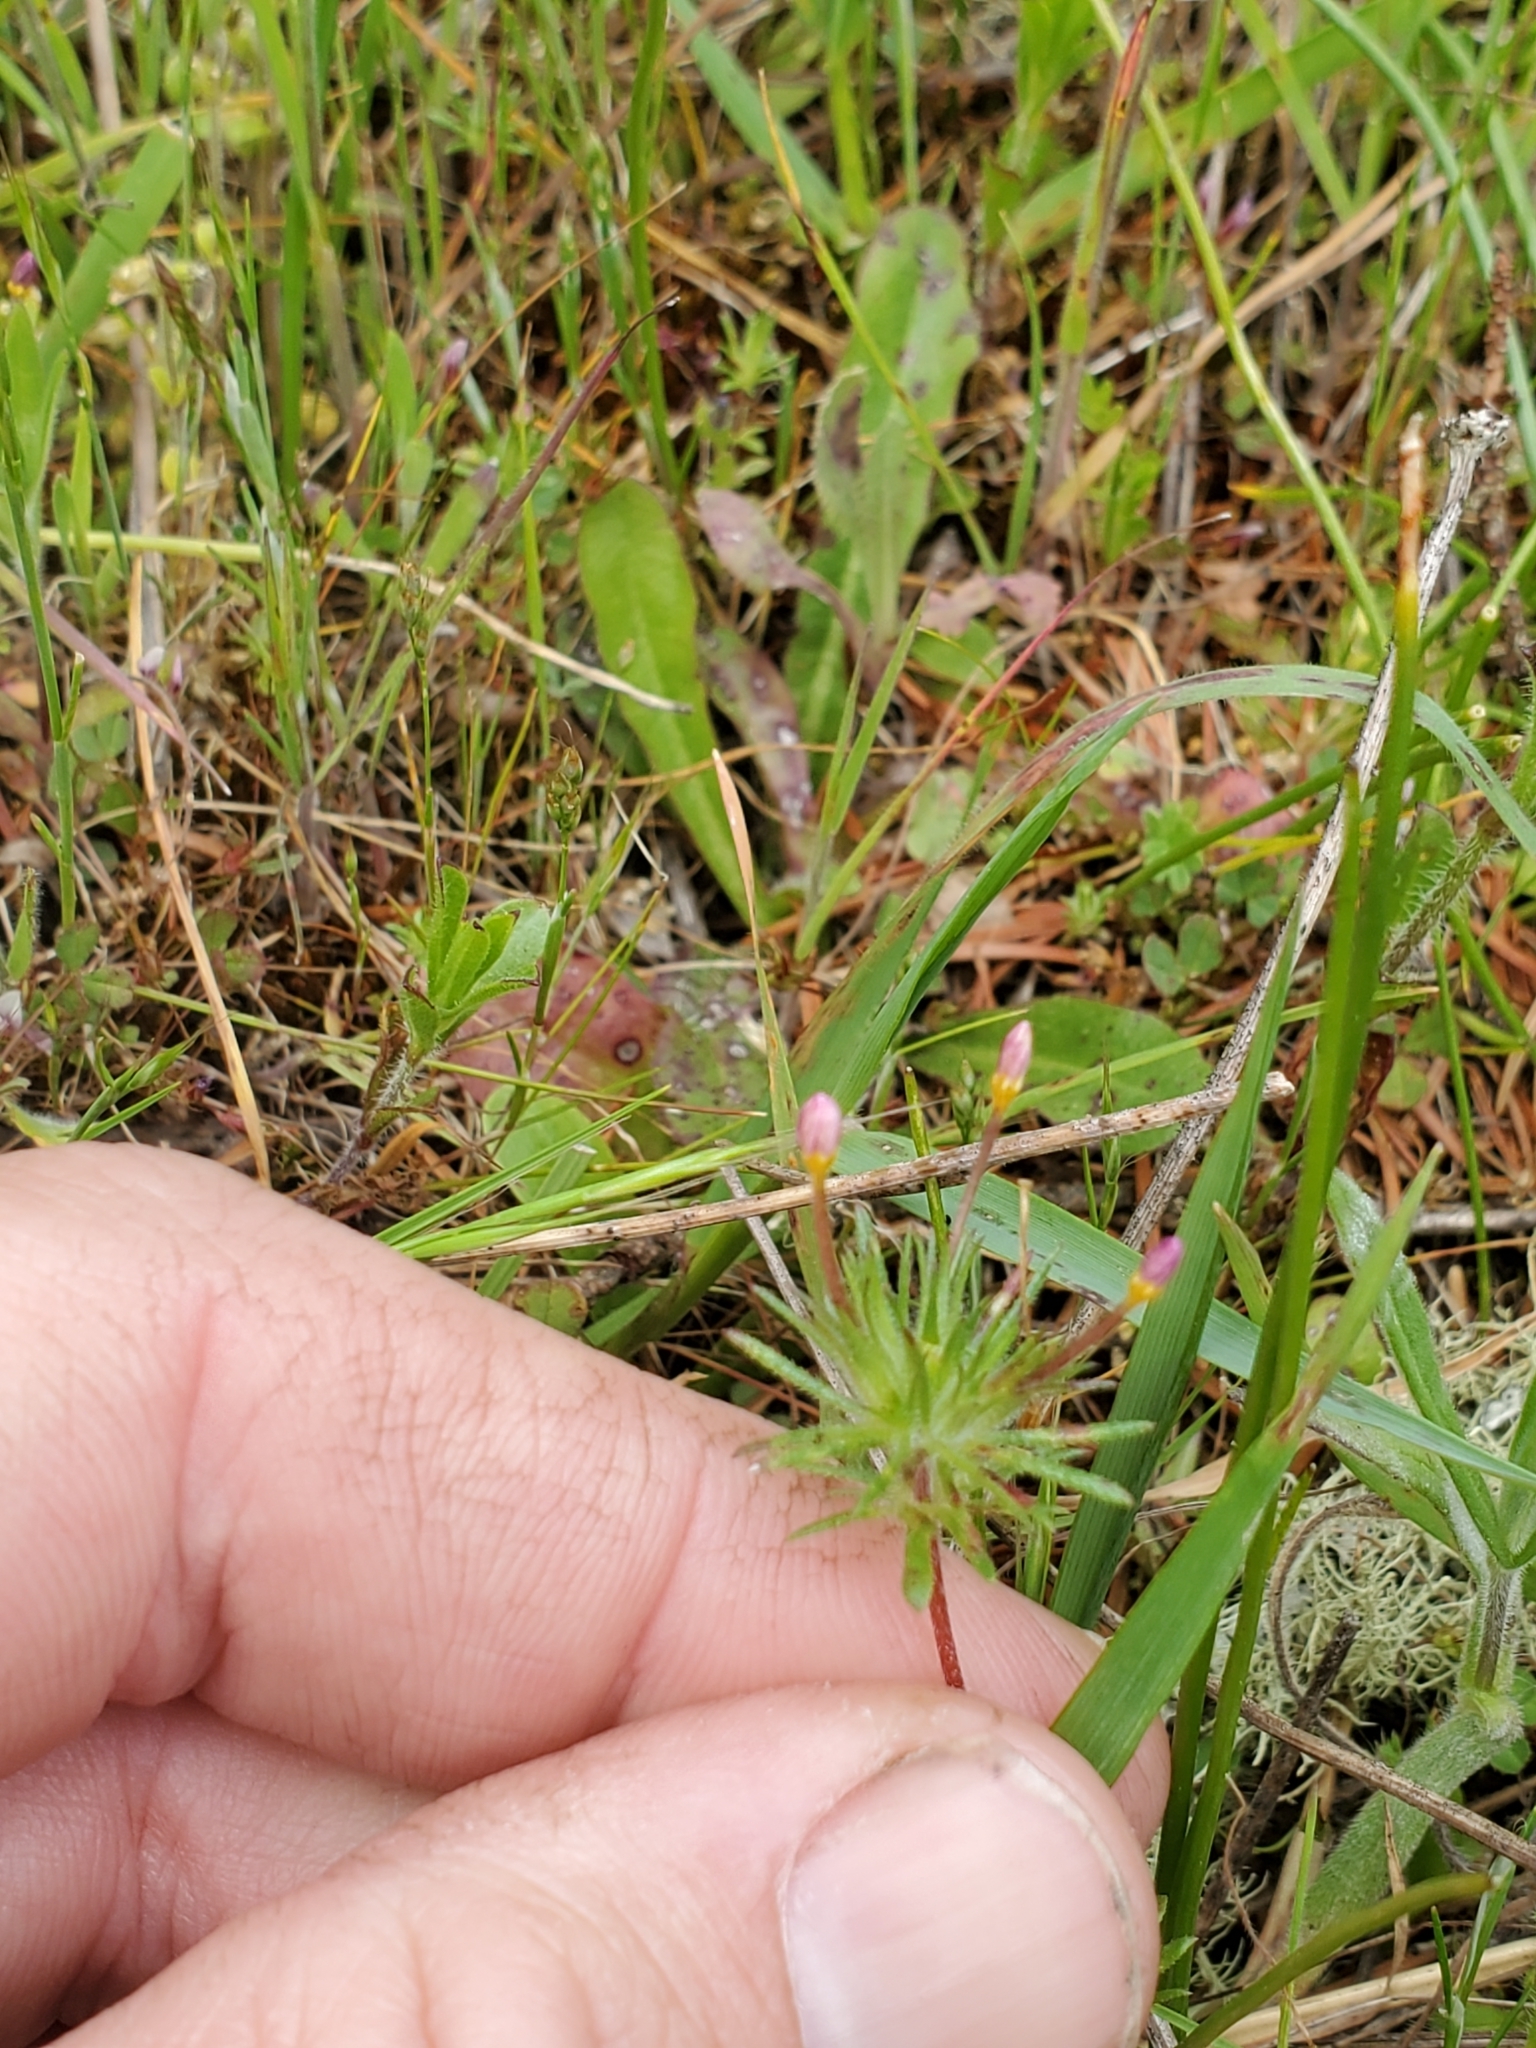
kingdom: Plantae
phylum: Tracheophyta
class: Magnoliopsida
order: Ericales
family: Polemoniaceae
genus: Leptosiphon
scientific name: Leptosiphon bicolor
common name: True babystars
